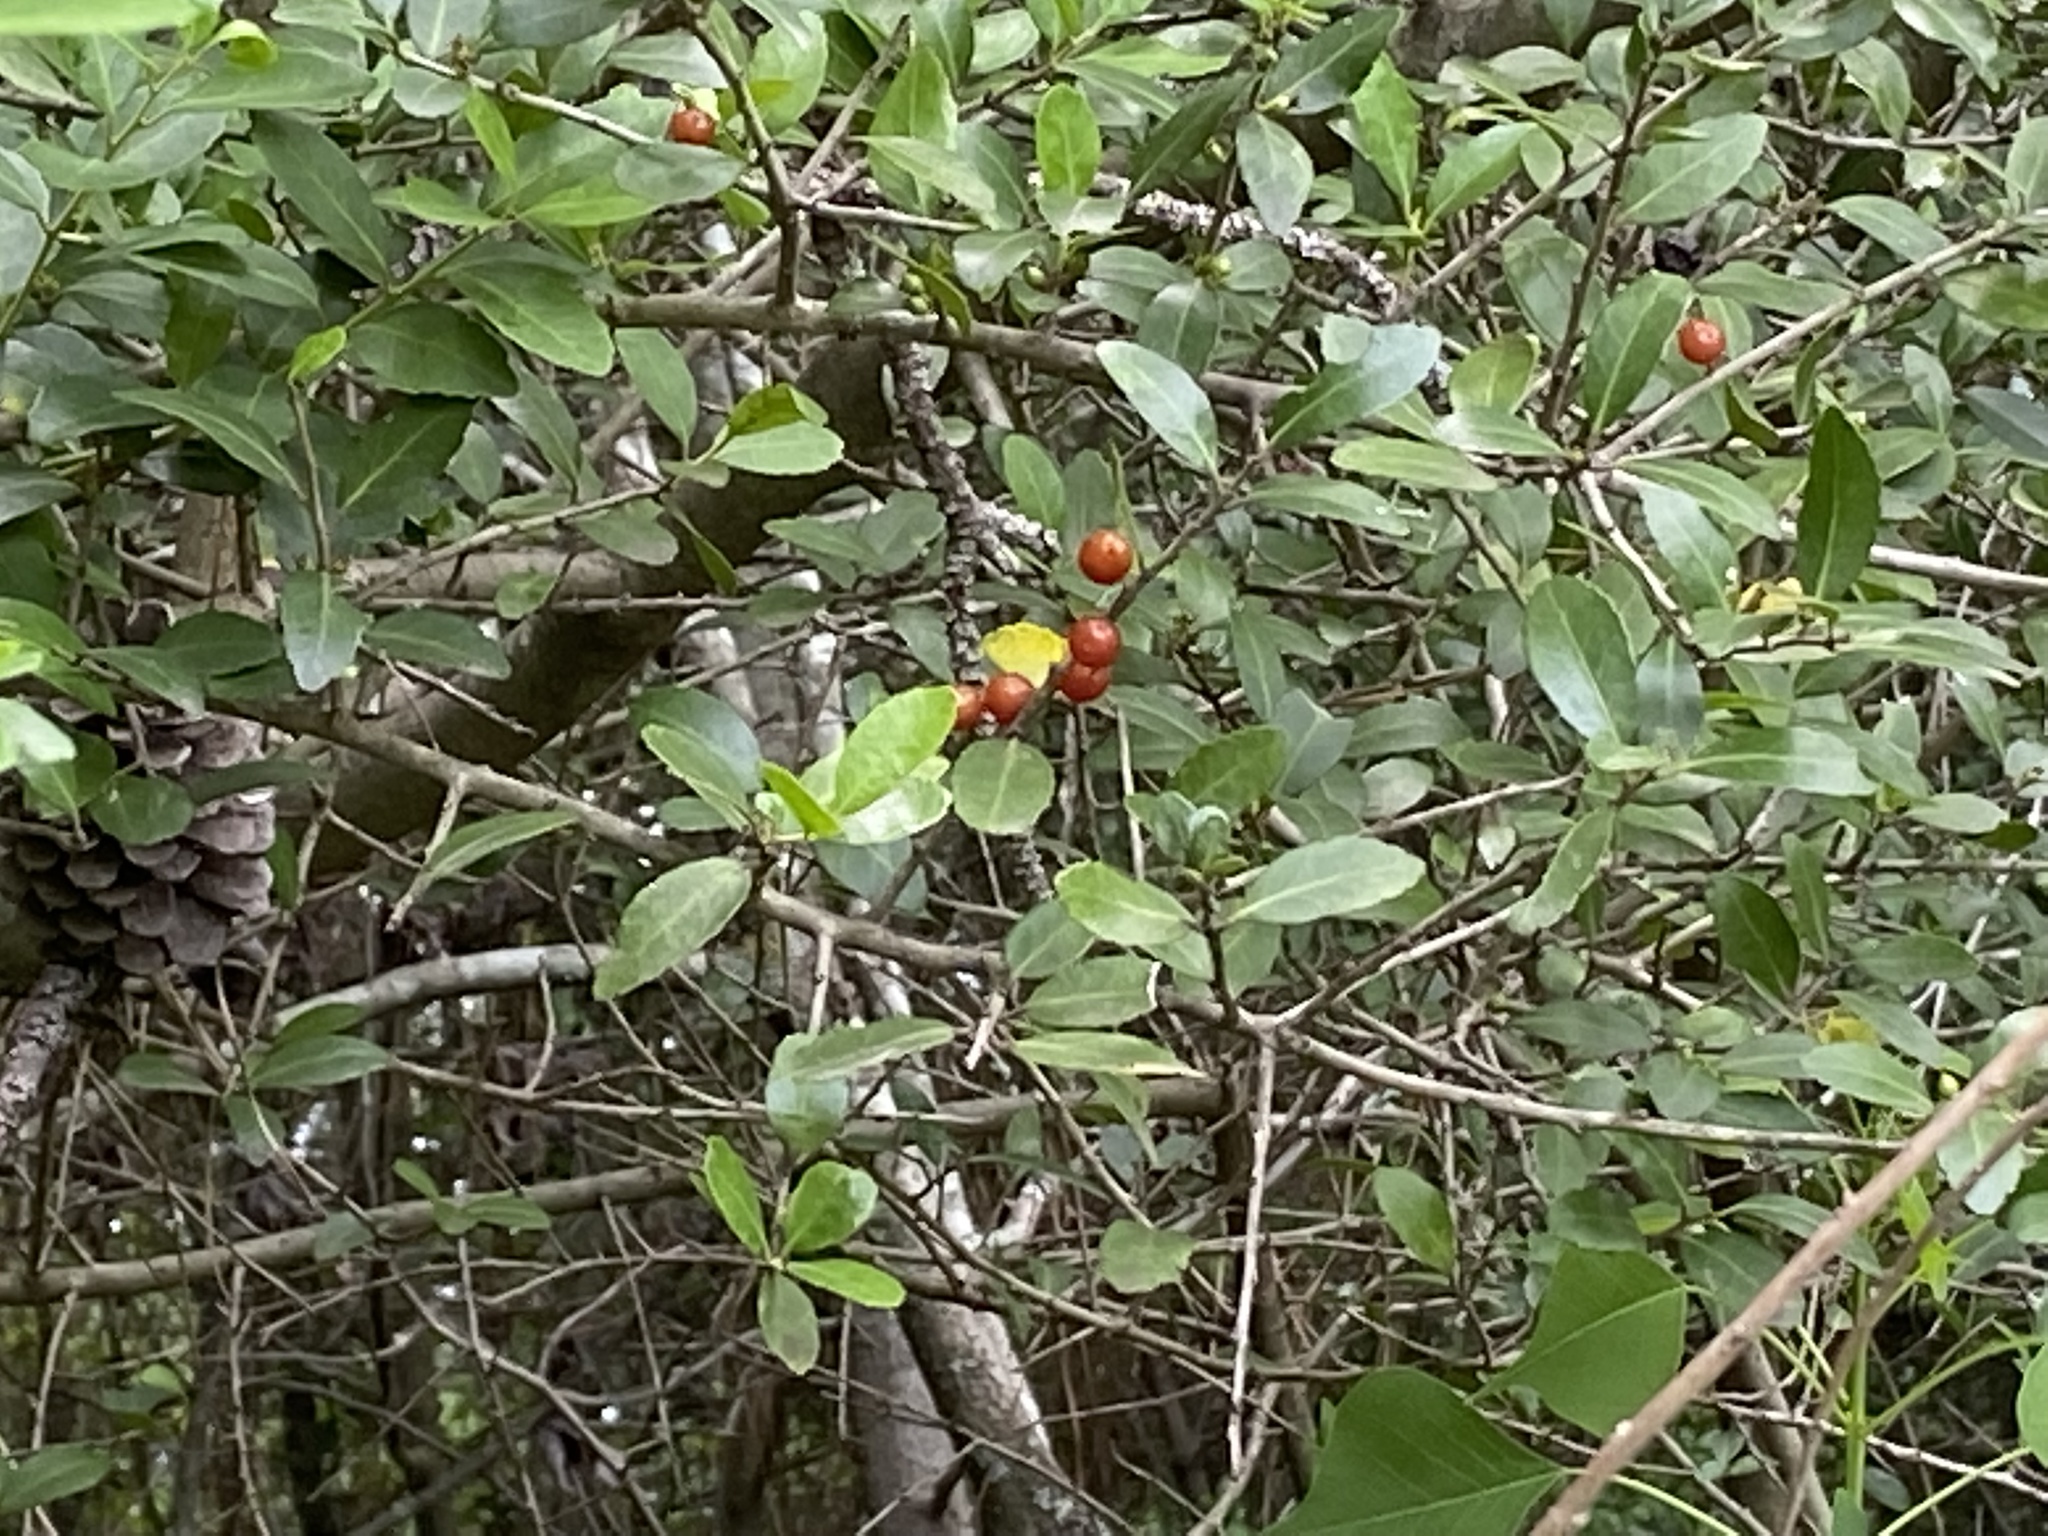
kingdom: Plantae
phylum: Tracheophyta
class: Magnoliopsida
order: Aquifoliales
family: Aquifoliaceae
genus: Ilex
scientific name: Ilex vomitoria
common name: Yaupon holly
